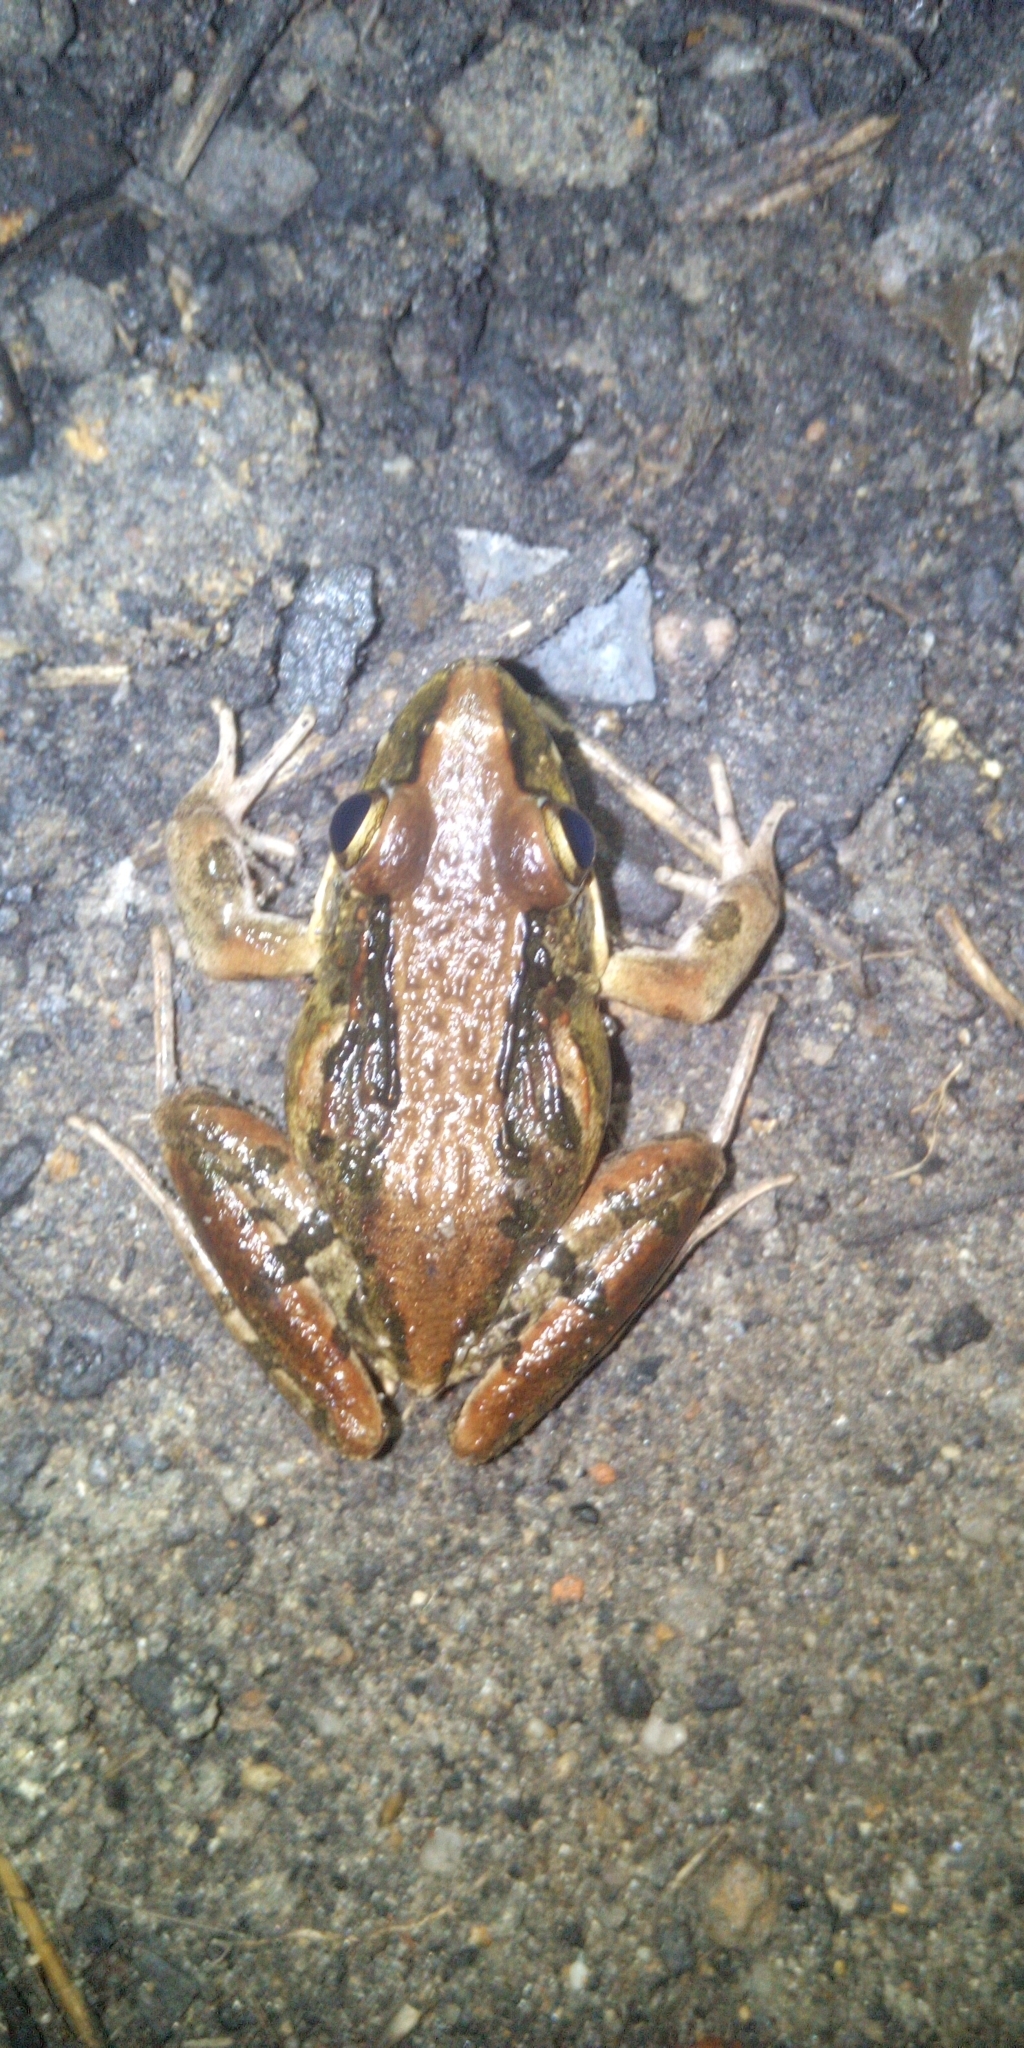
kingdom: Animalia
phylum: Chordata
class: Amphibia
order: Anura
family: Pyxicephalidae
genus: Strongylopus
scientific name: Strongylopus grayii
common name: Gray's stream frog
